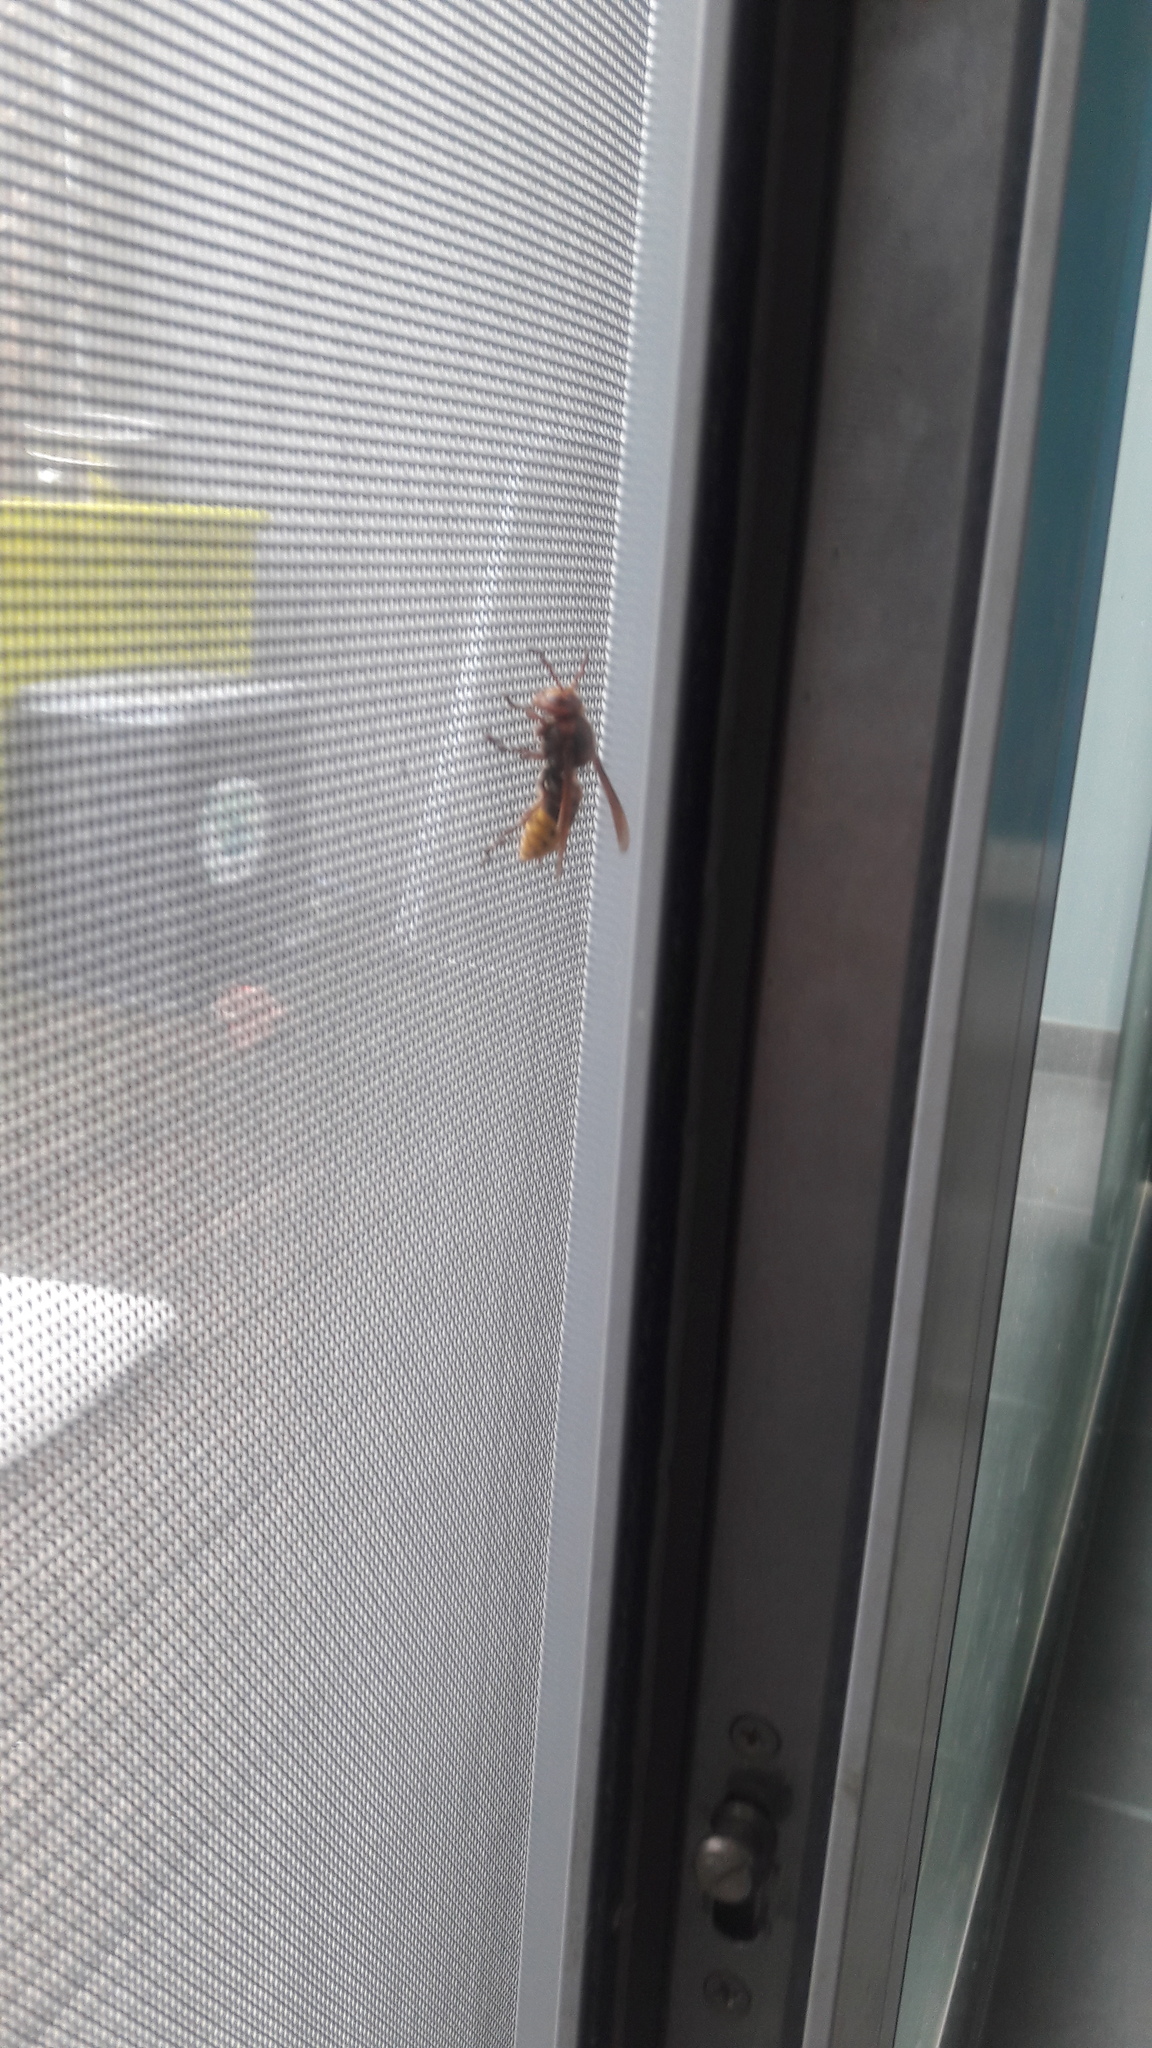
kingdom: Animalia
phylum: Arthropoda
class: Insecta
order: Hymenoptera
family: Vespidae
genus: Vespa
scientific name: Vespa crabro
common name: Hornet
